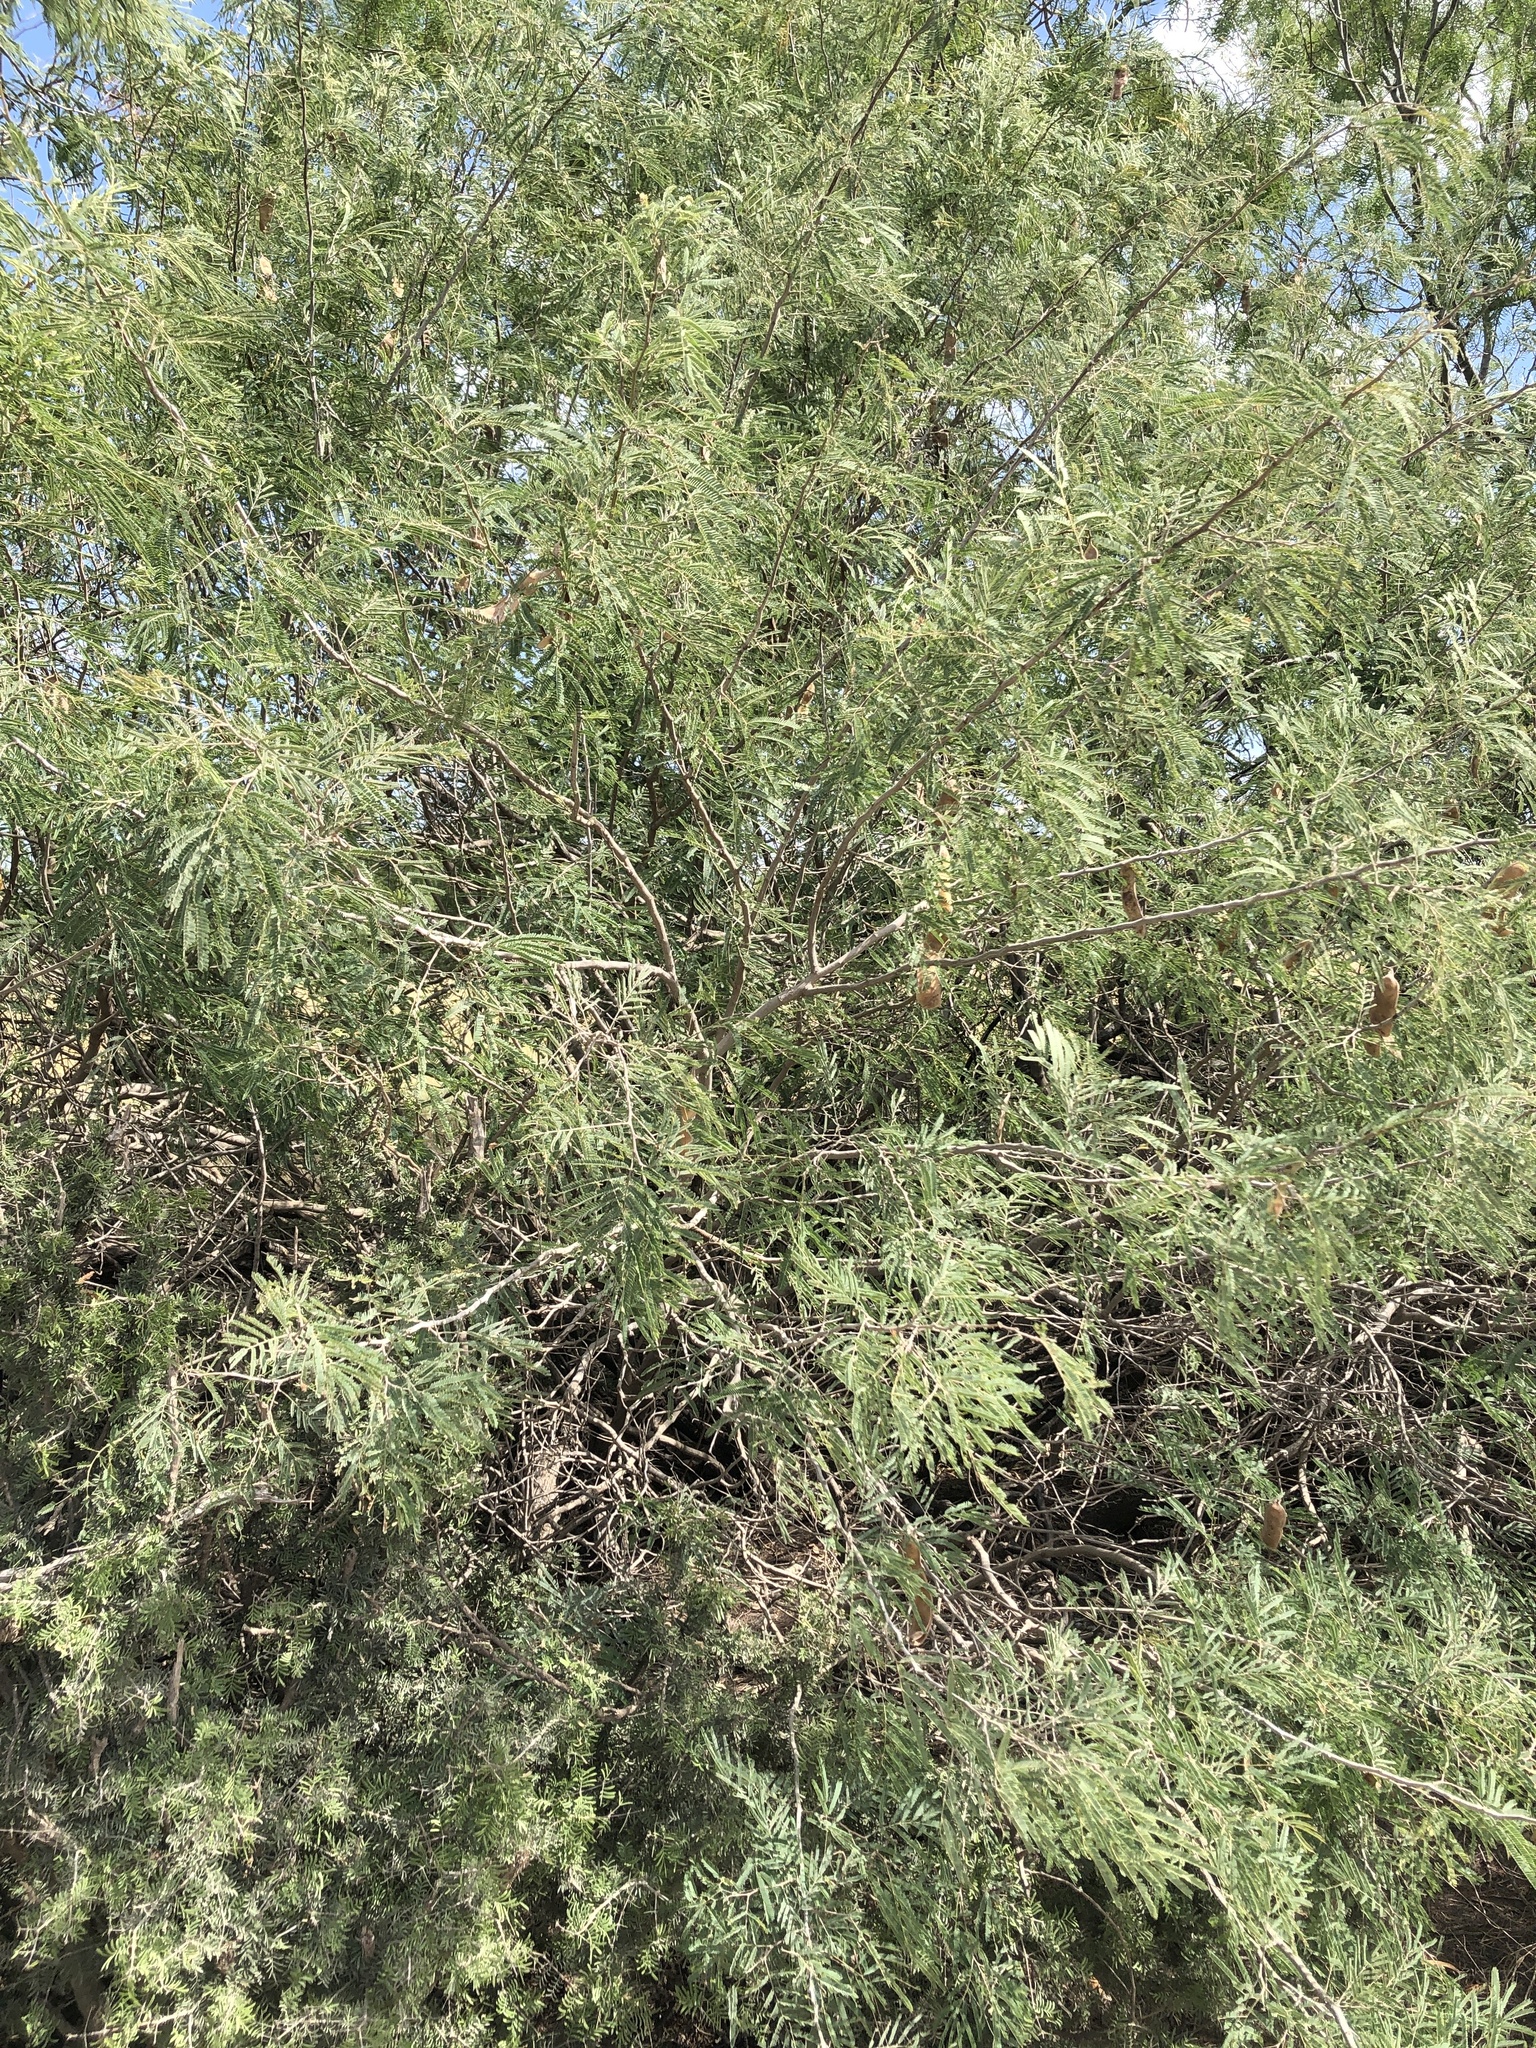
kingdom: Plantae
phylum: Tracheophyta
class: Magnoliopsida
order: Fabales
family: Fabaceae
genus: Senegalia
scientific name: Senegalia berlandieri
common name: Berlandier acacia
